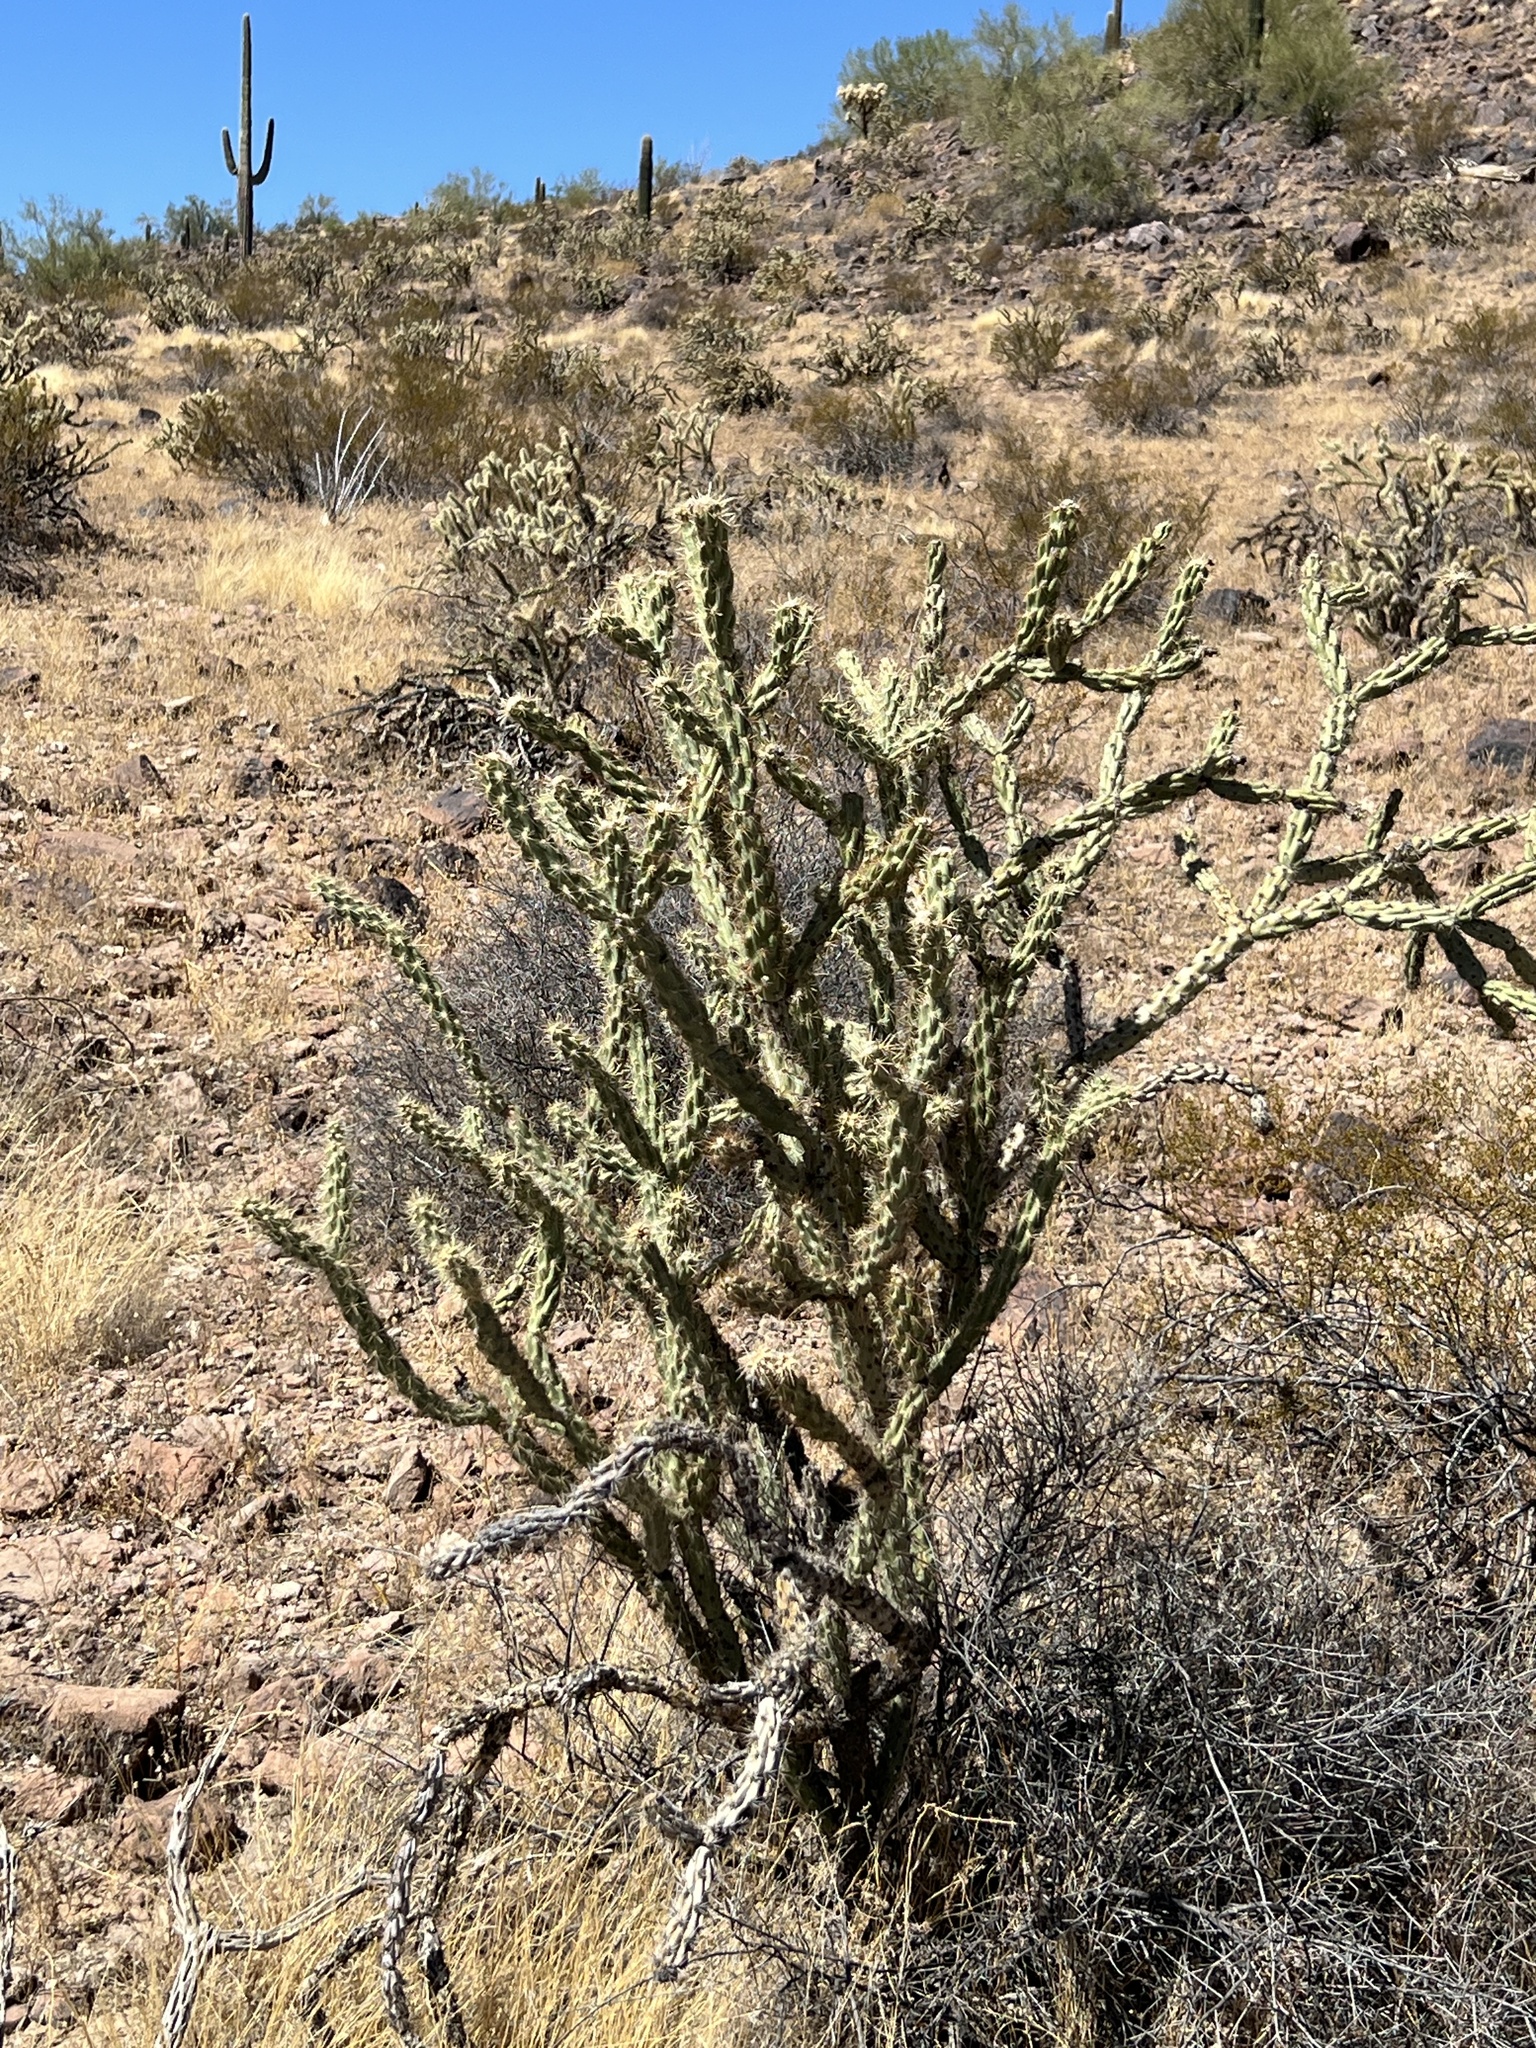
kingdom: Plantae
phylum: Tracheophyta
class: Magnoliopsida
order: Caryophyllales
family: Cactaceae
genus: Cylindropuntia
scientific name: Cylindropuntia acanthocarpa
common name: Buckhorn cholla
